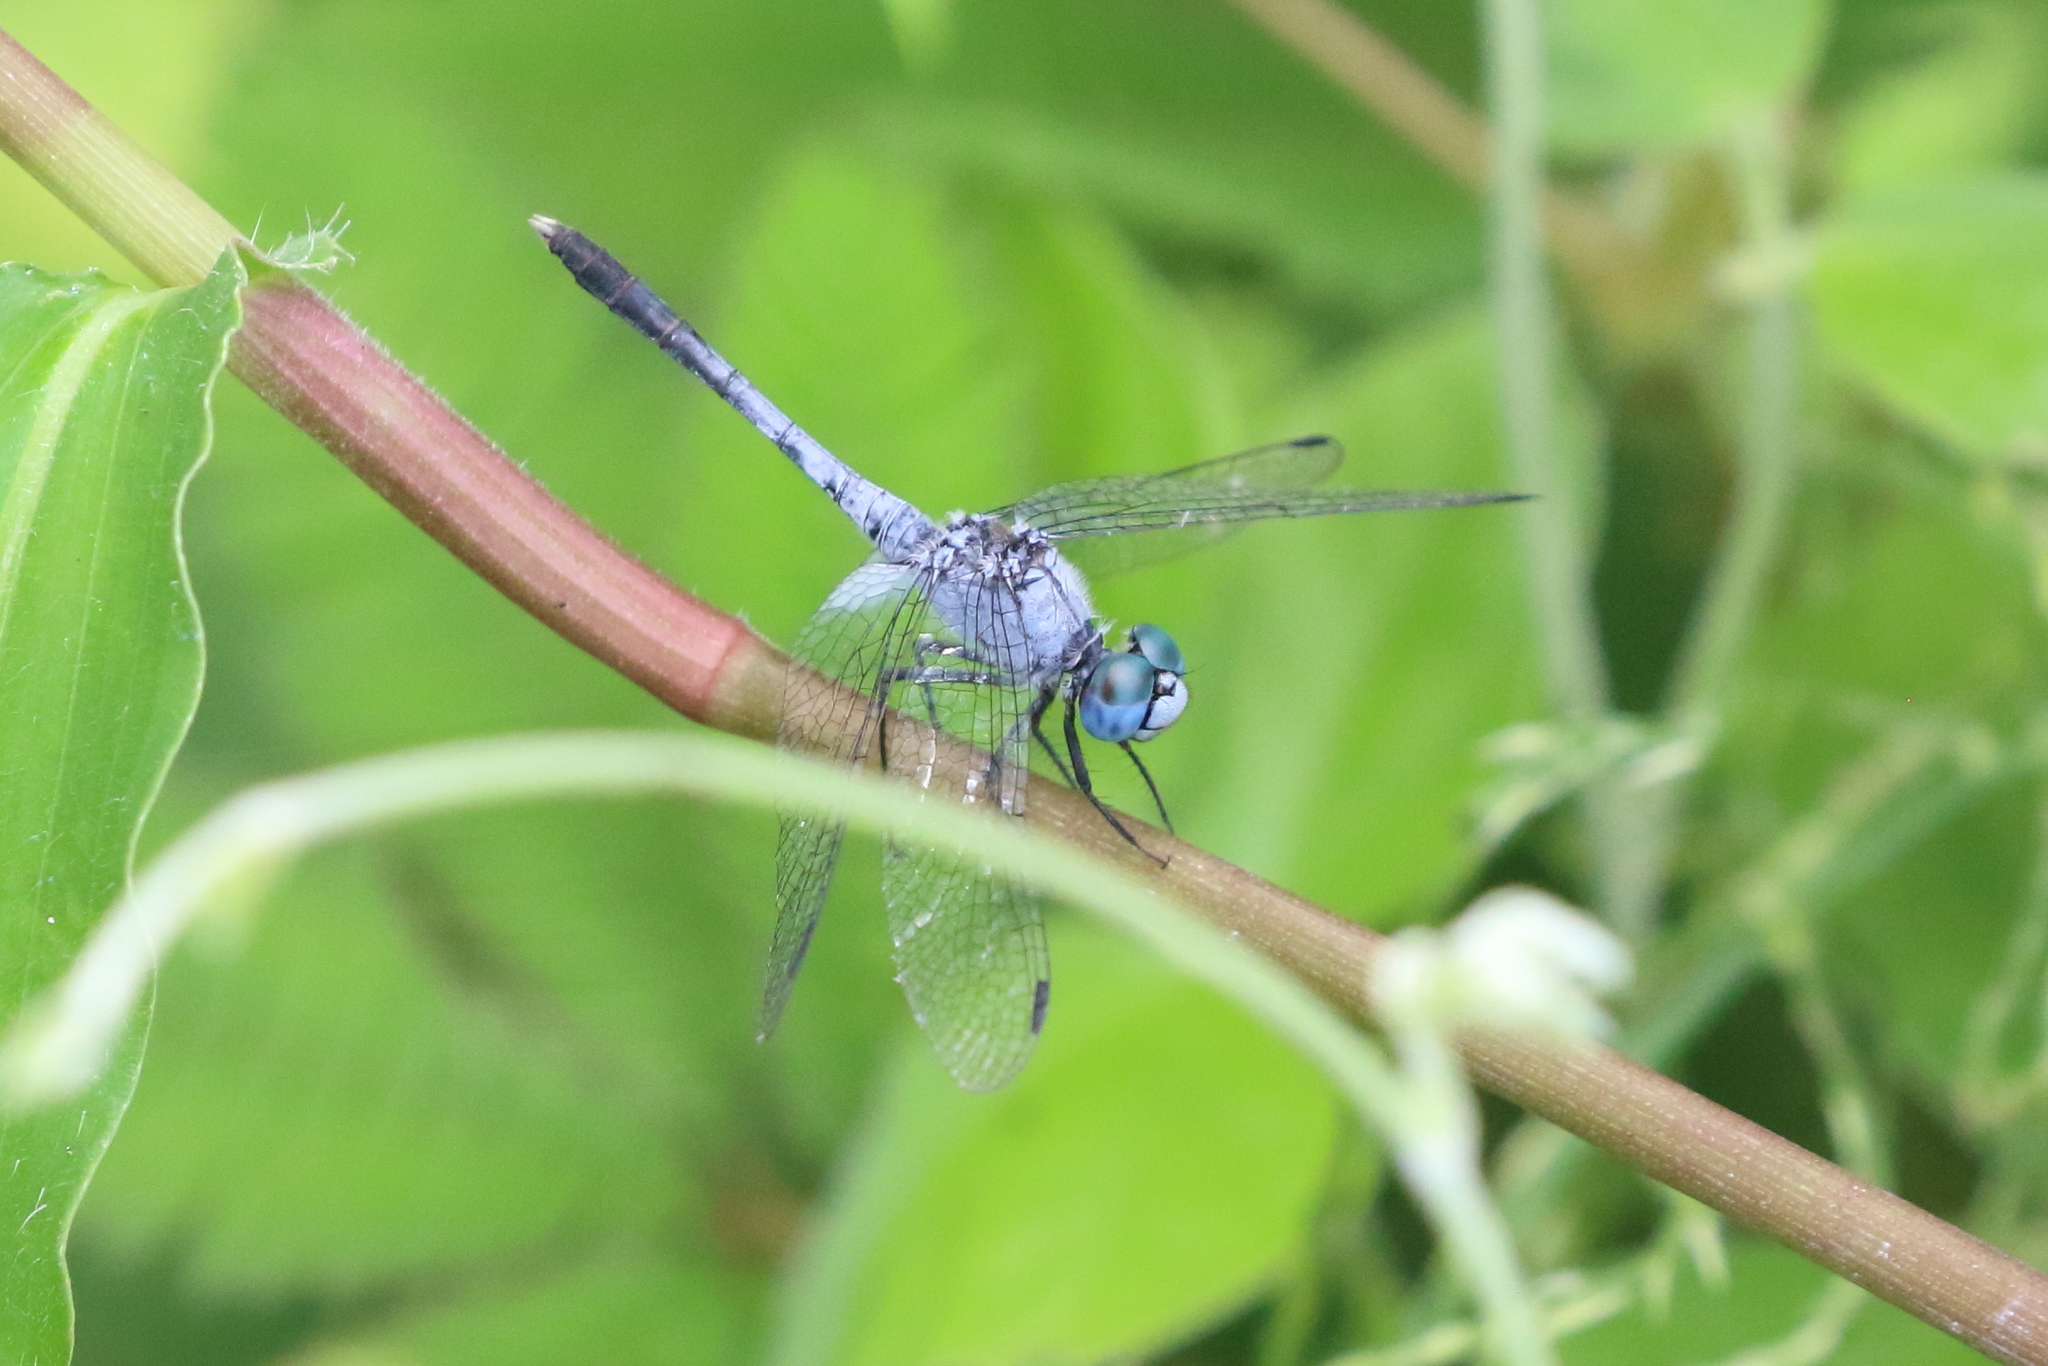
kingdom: Animalia
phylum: Arthropoda
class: Insecta
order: Odonata
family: Libellulidae
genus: Diplacodes
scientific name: Diplacodes trivialis
